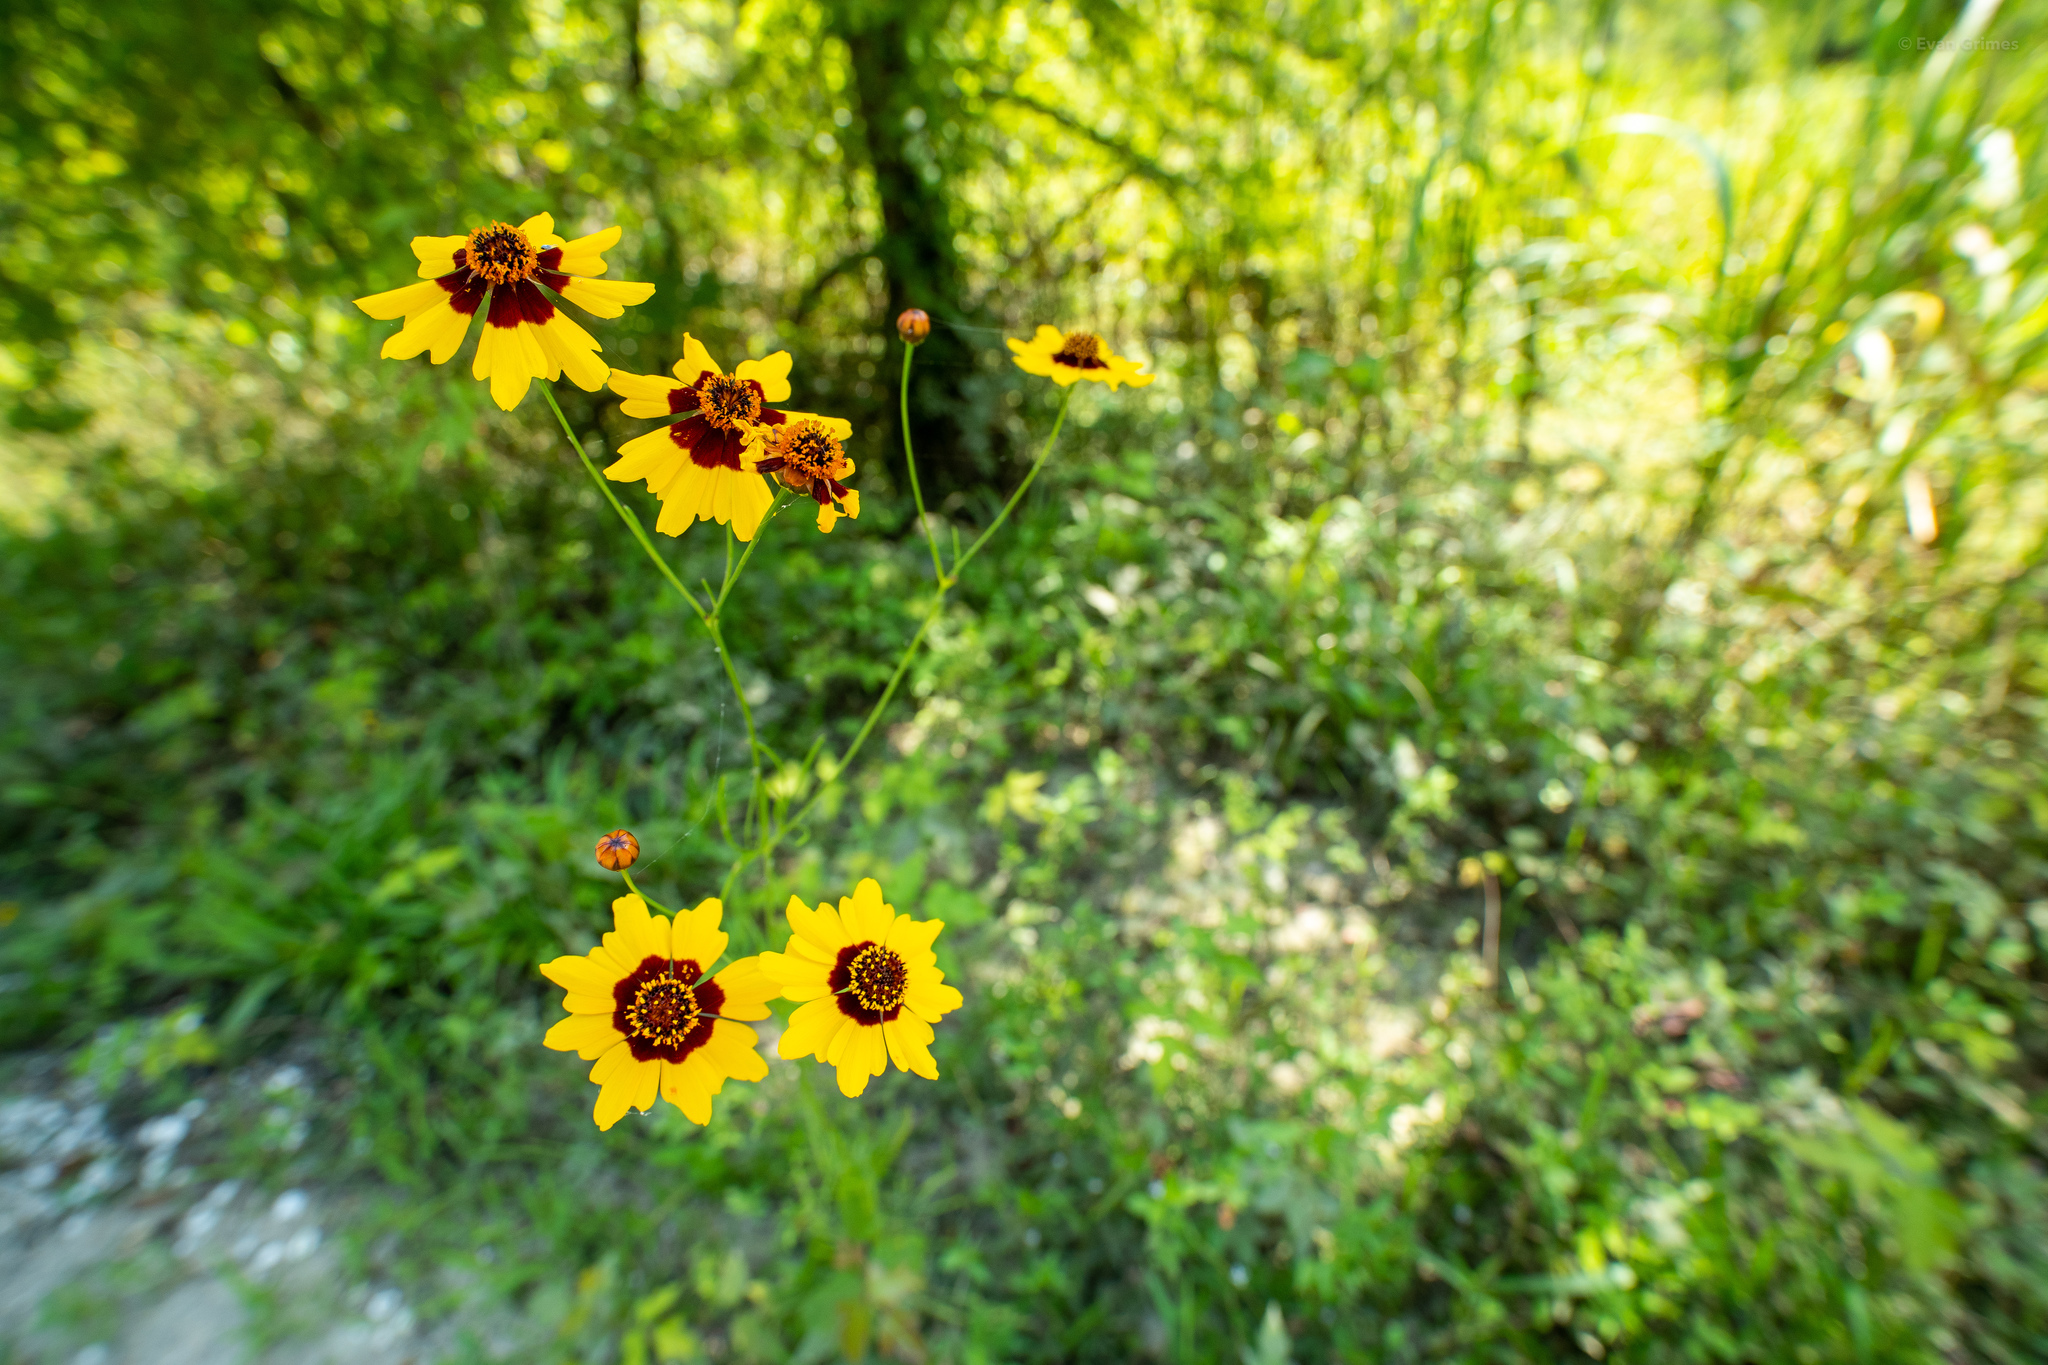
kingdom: Plantae
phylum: Tracheophyta
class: Magnoliopsida
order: Asterales
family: Asteraceae
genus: Coreopsis
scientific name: Coreopsis tinctoria
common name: Garden tickseed
